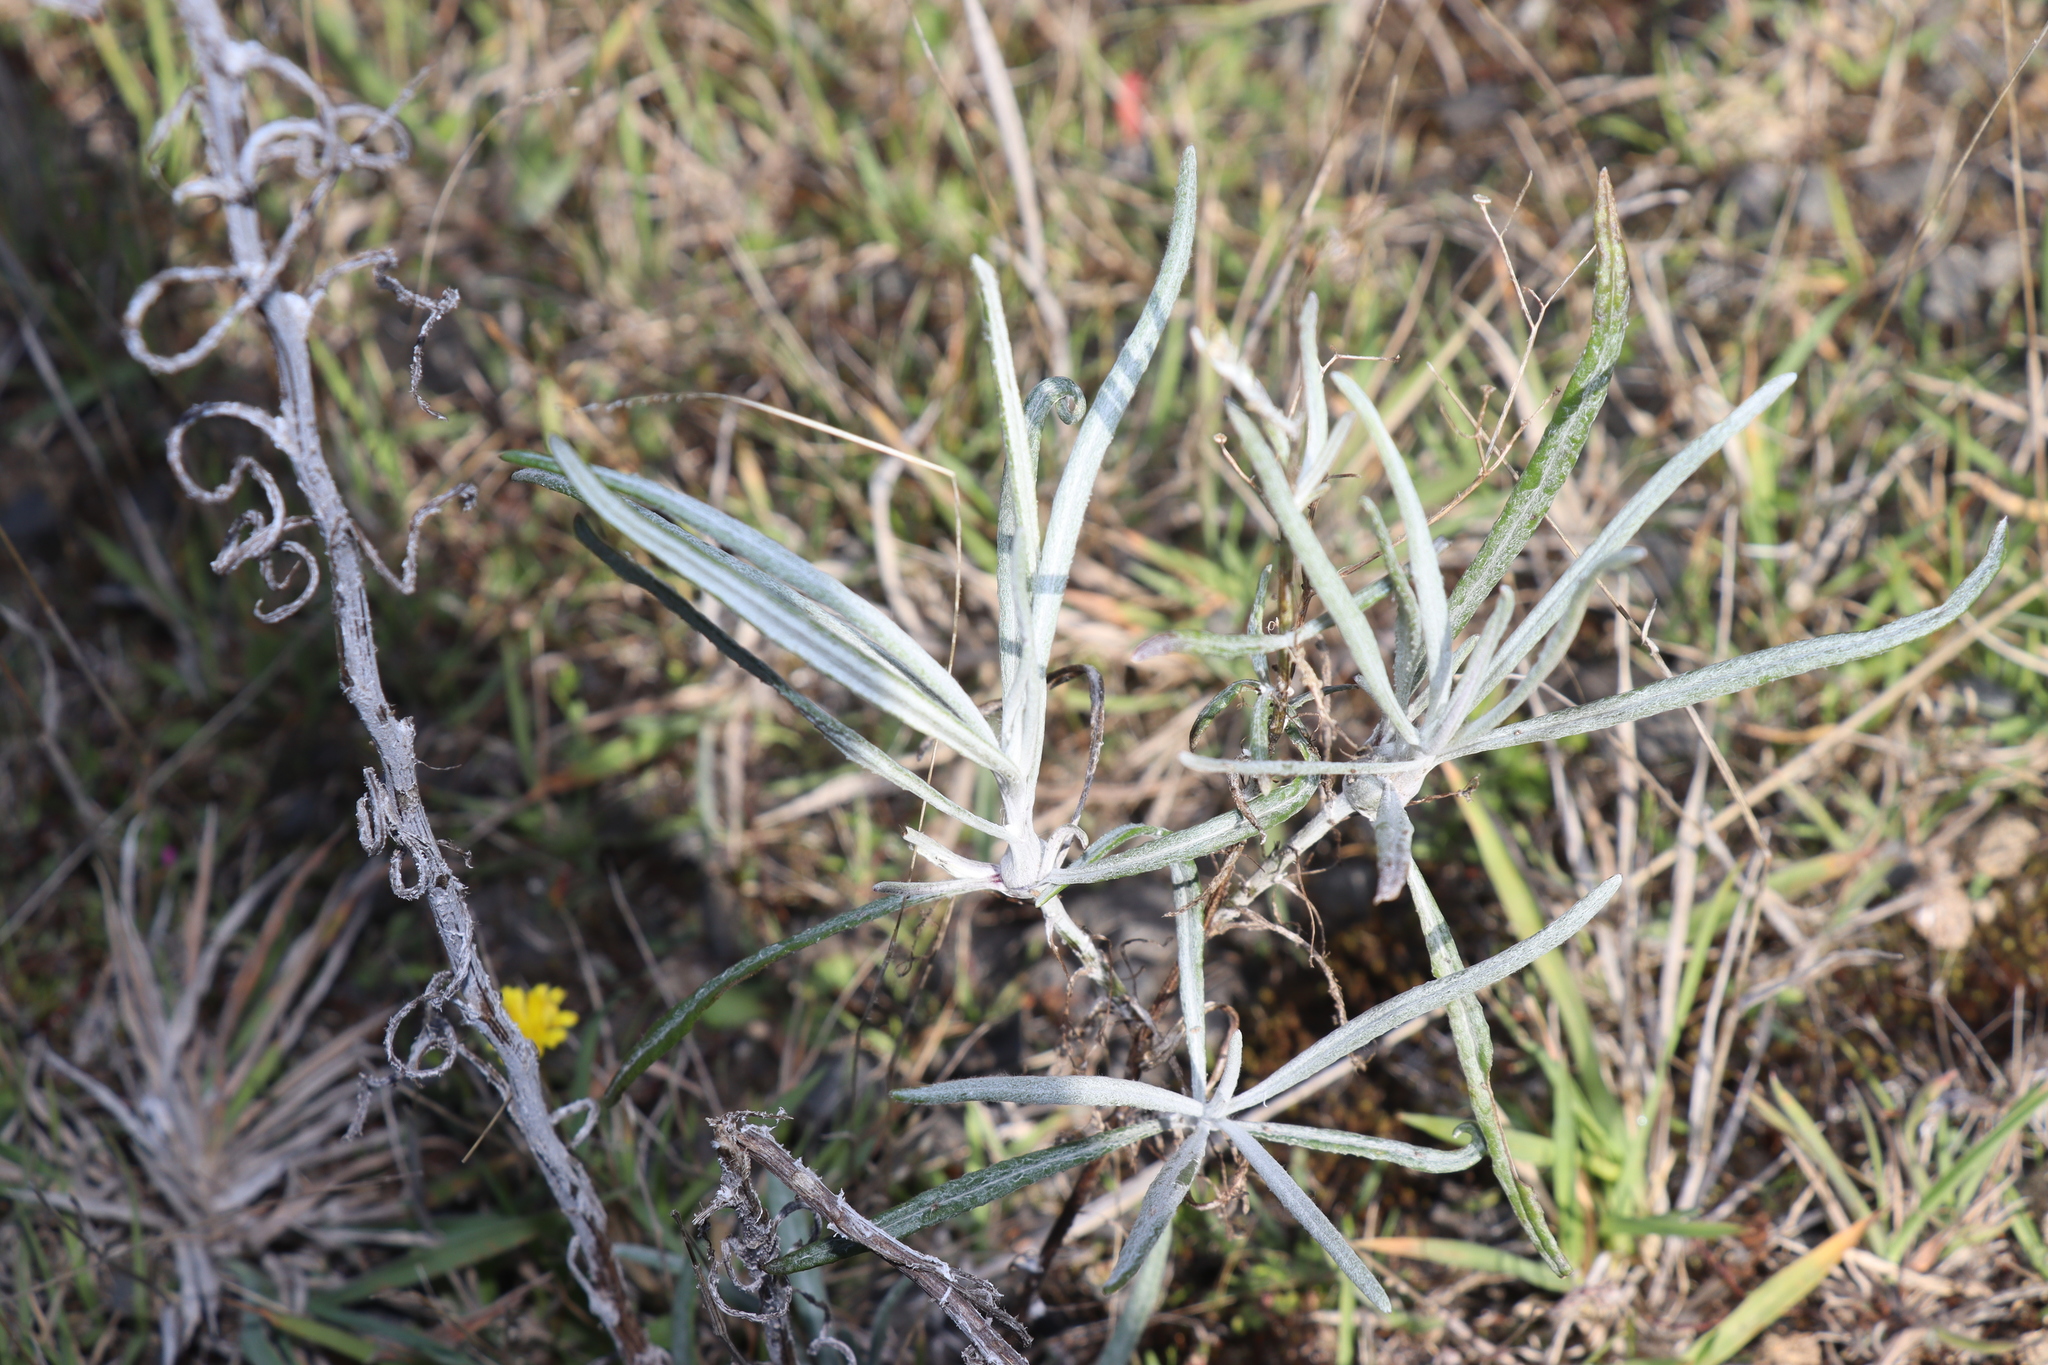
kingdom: Plantae
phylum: Tracheophyta
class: Magnoliopsida
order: Asterales
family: Asteraceae
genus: Senecio
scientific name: Senecio quadridentatus
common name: Cotton fireweed
